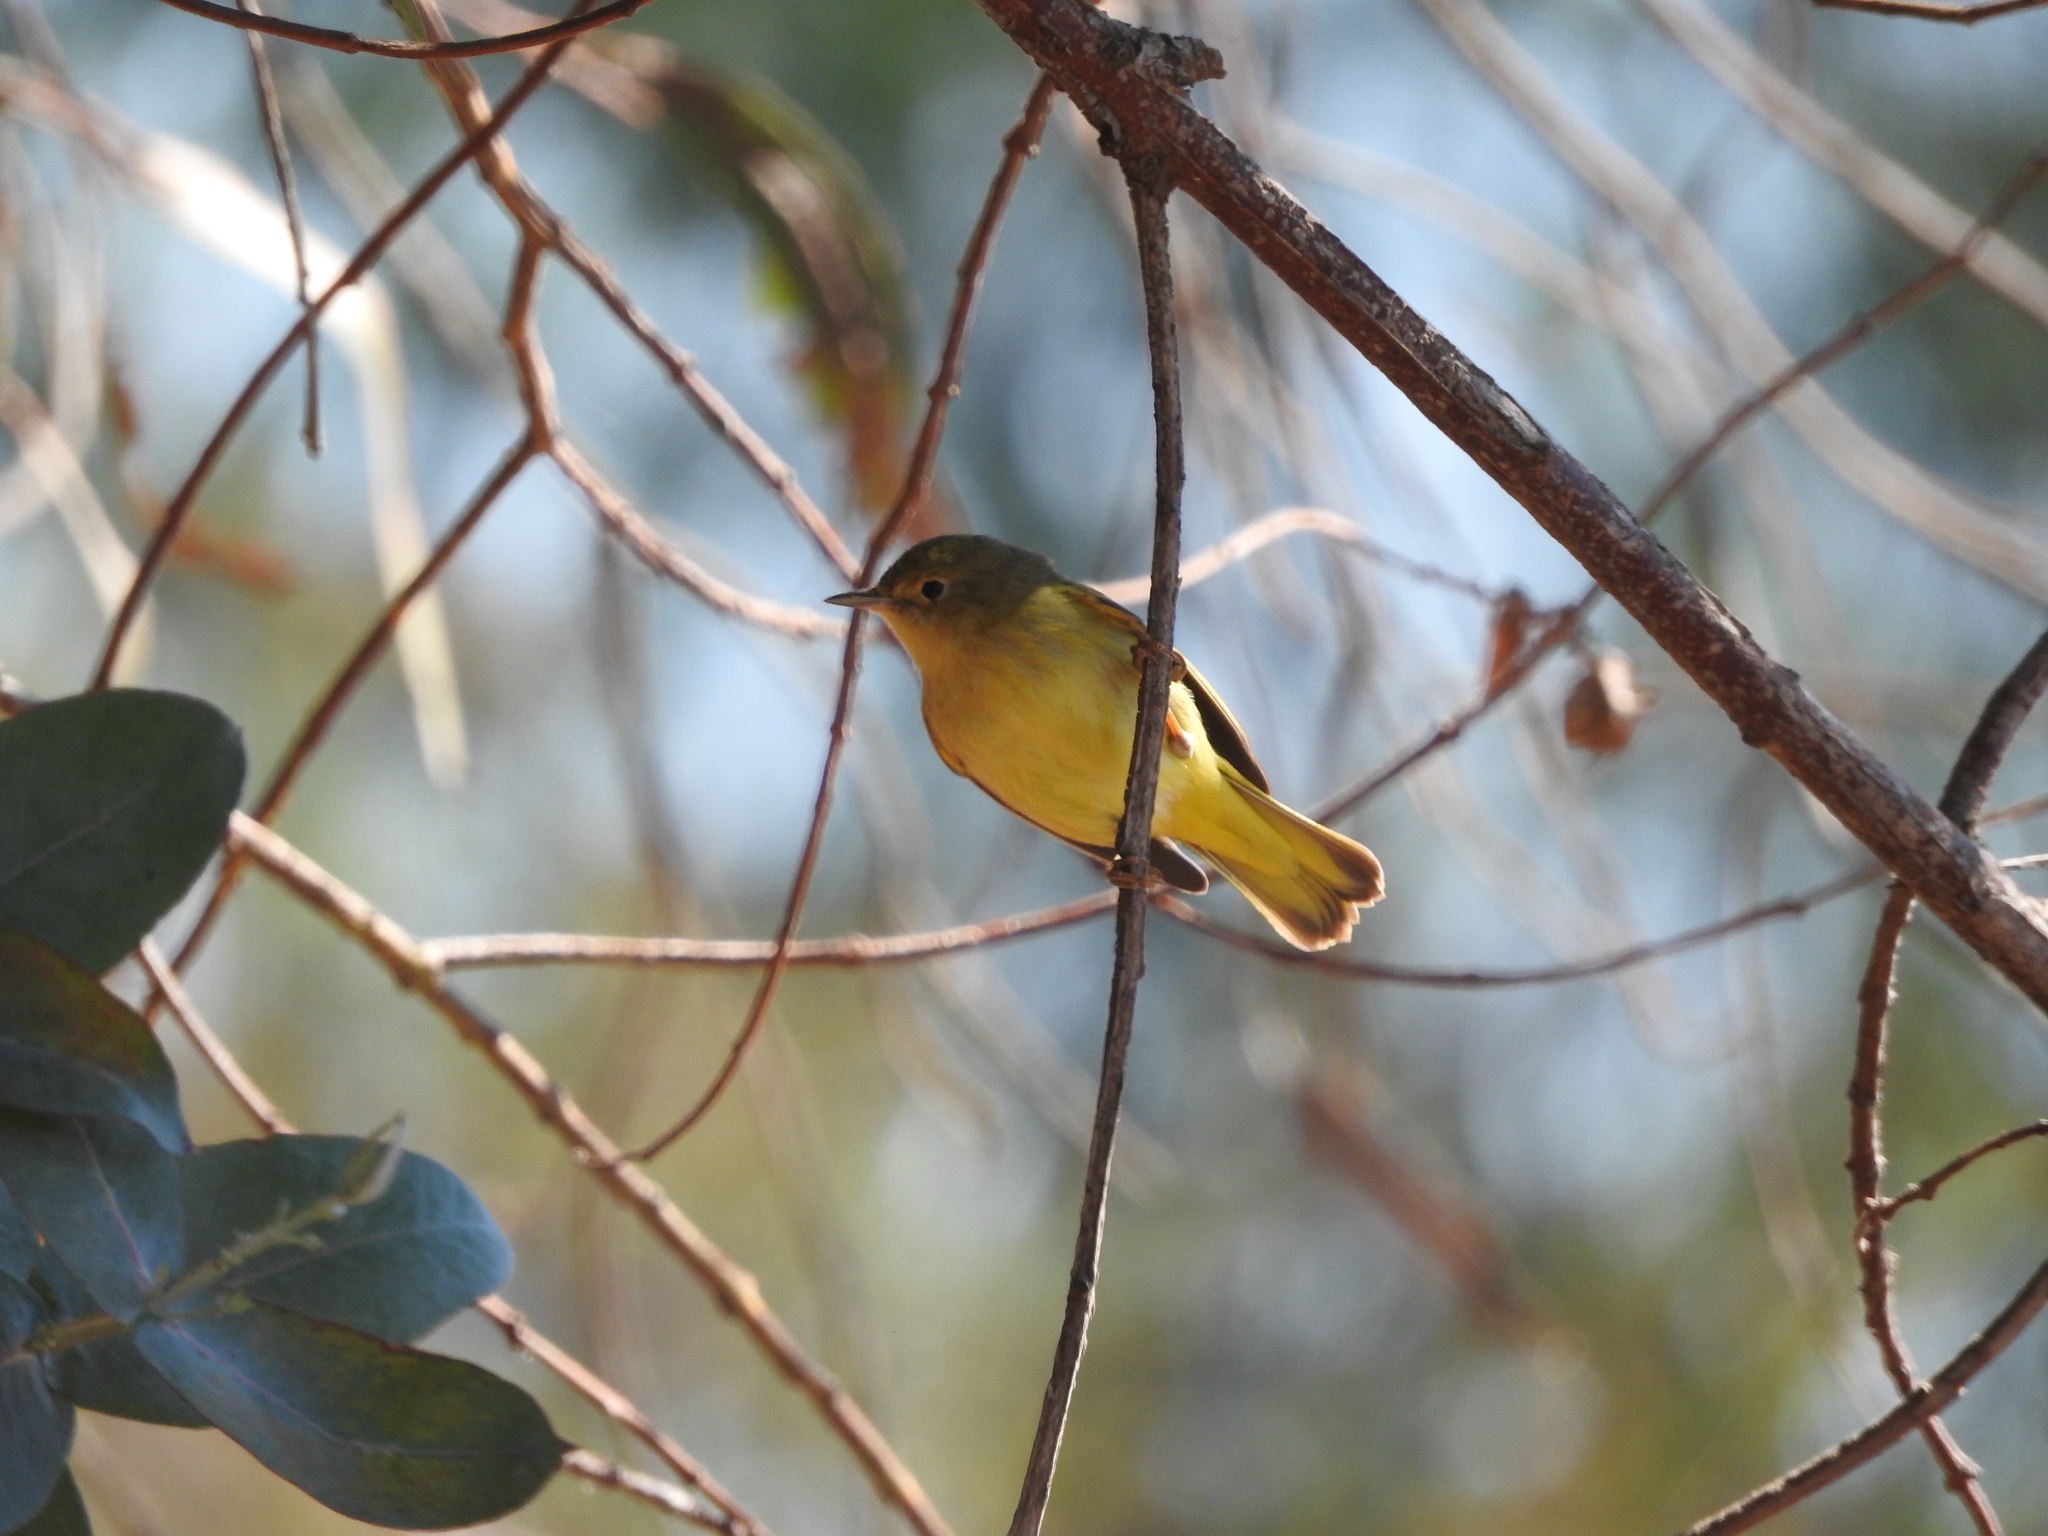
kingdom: Animalia
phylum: Chordata
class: Aves
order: Passeriformes
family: Parulidae
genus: Leiothlypis
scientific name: Leiothlypis ruficapilla
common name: Nashville warbler
